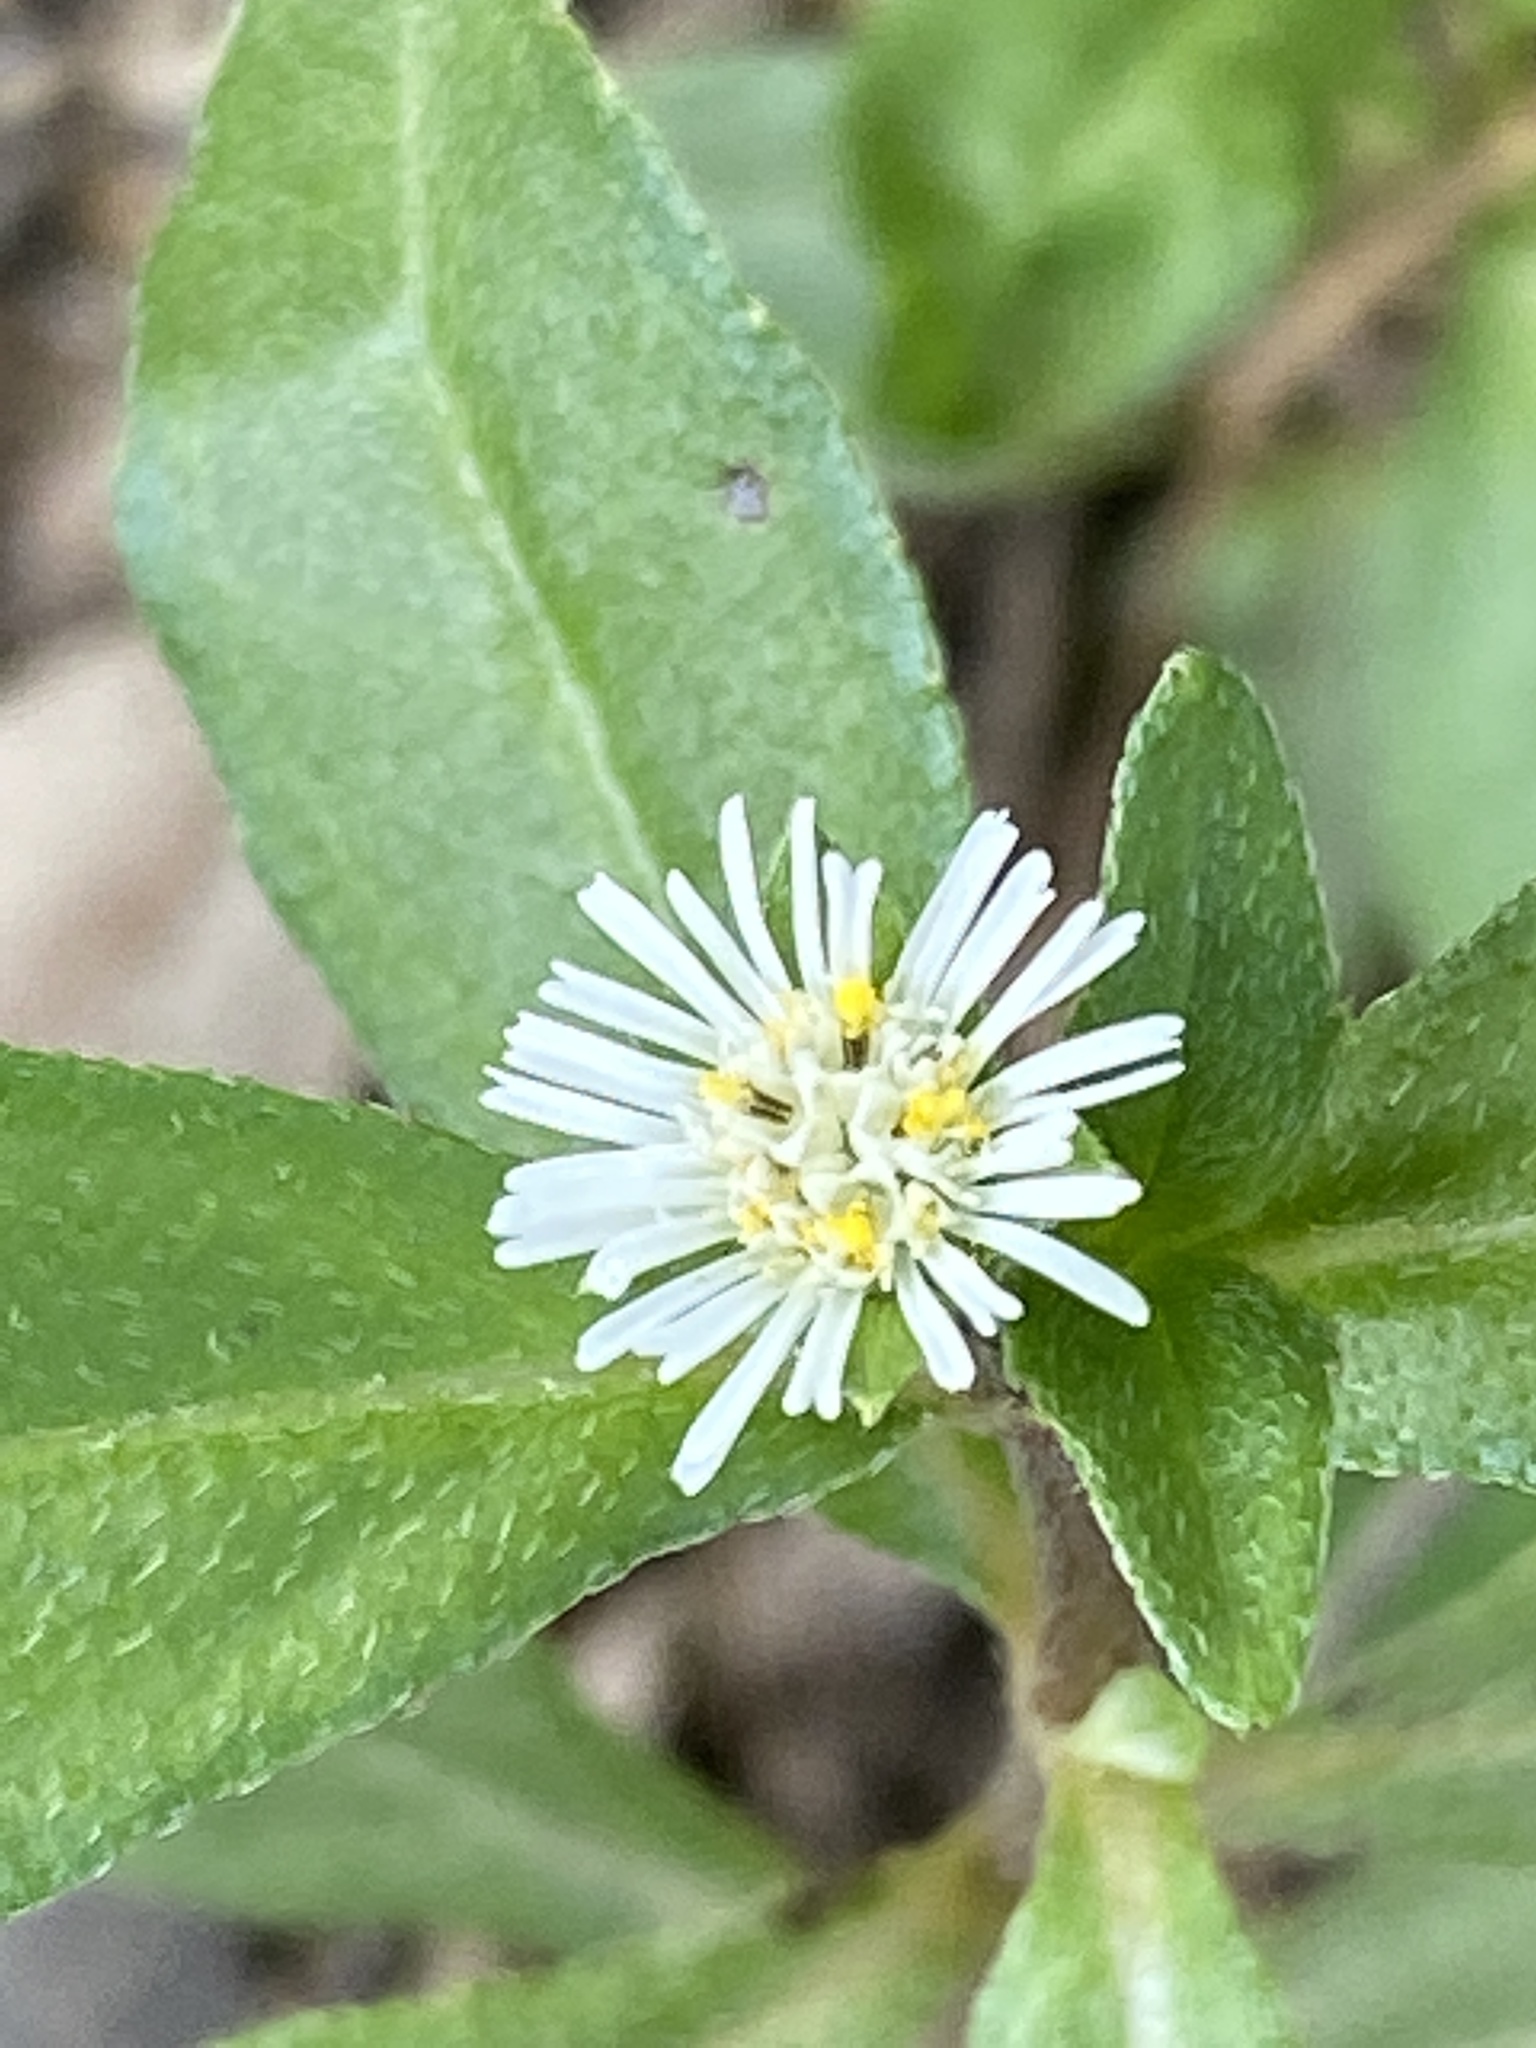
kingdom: Plantae
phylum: Tracheophyta
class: Magnoliopsida
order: Asterales
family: Asteraceae
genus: Eclipta
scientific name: Eclipta prostrata
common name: False daisy
